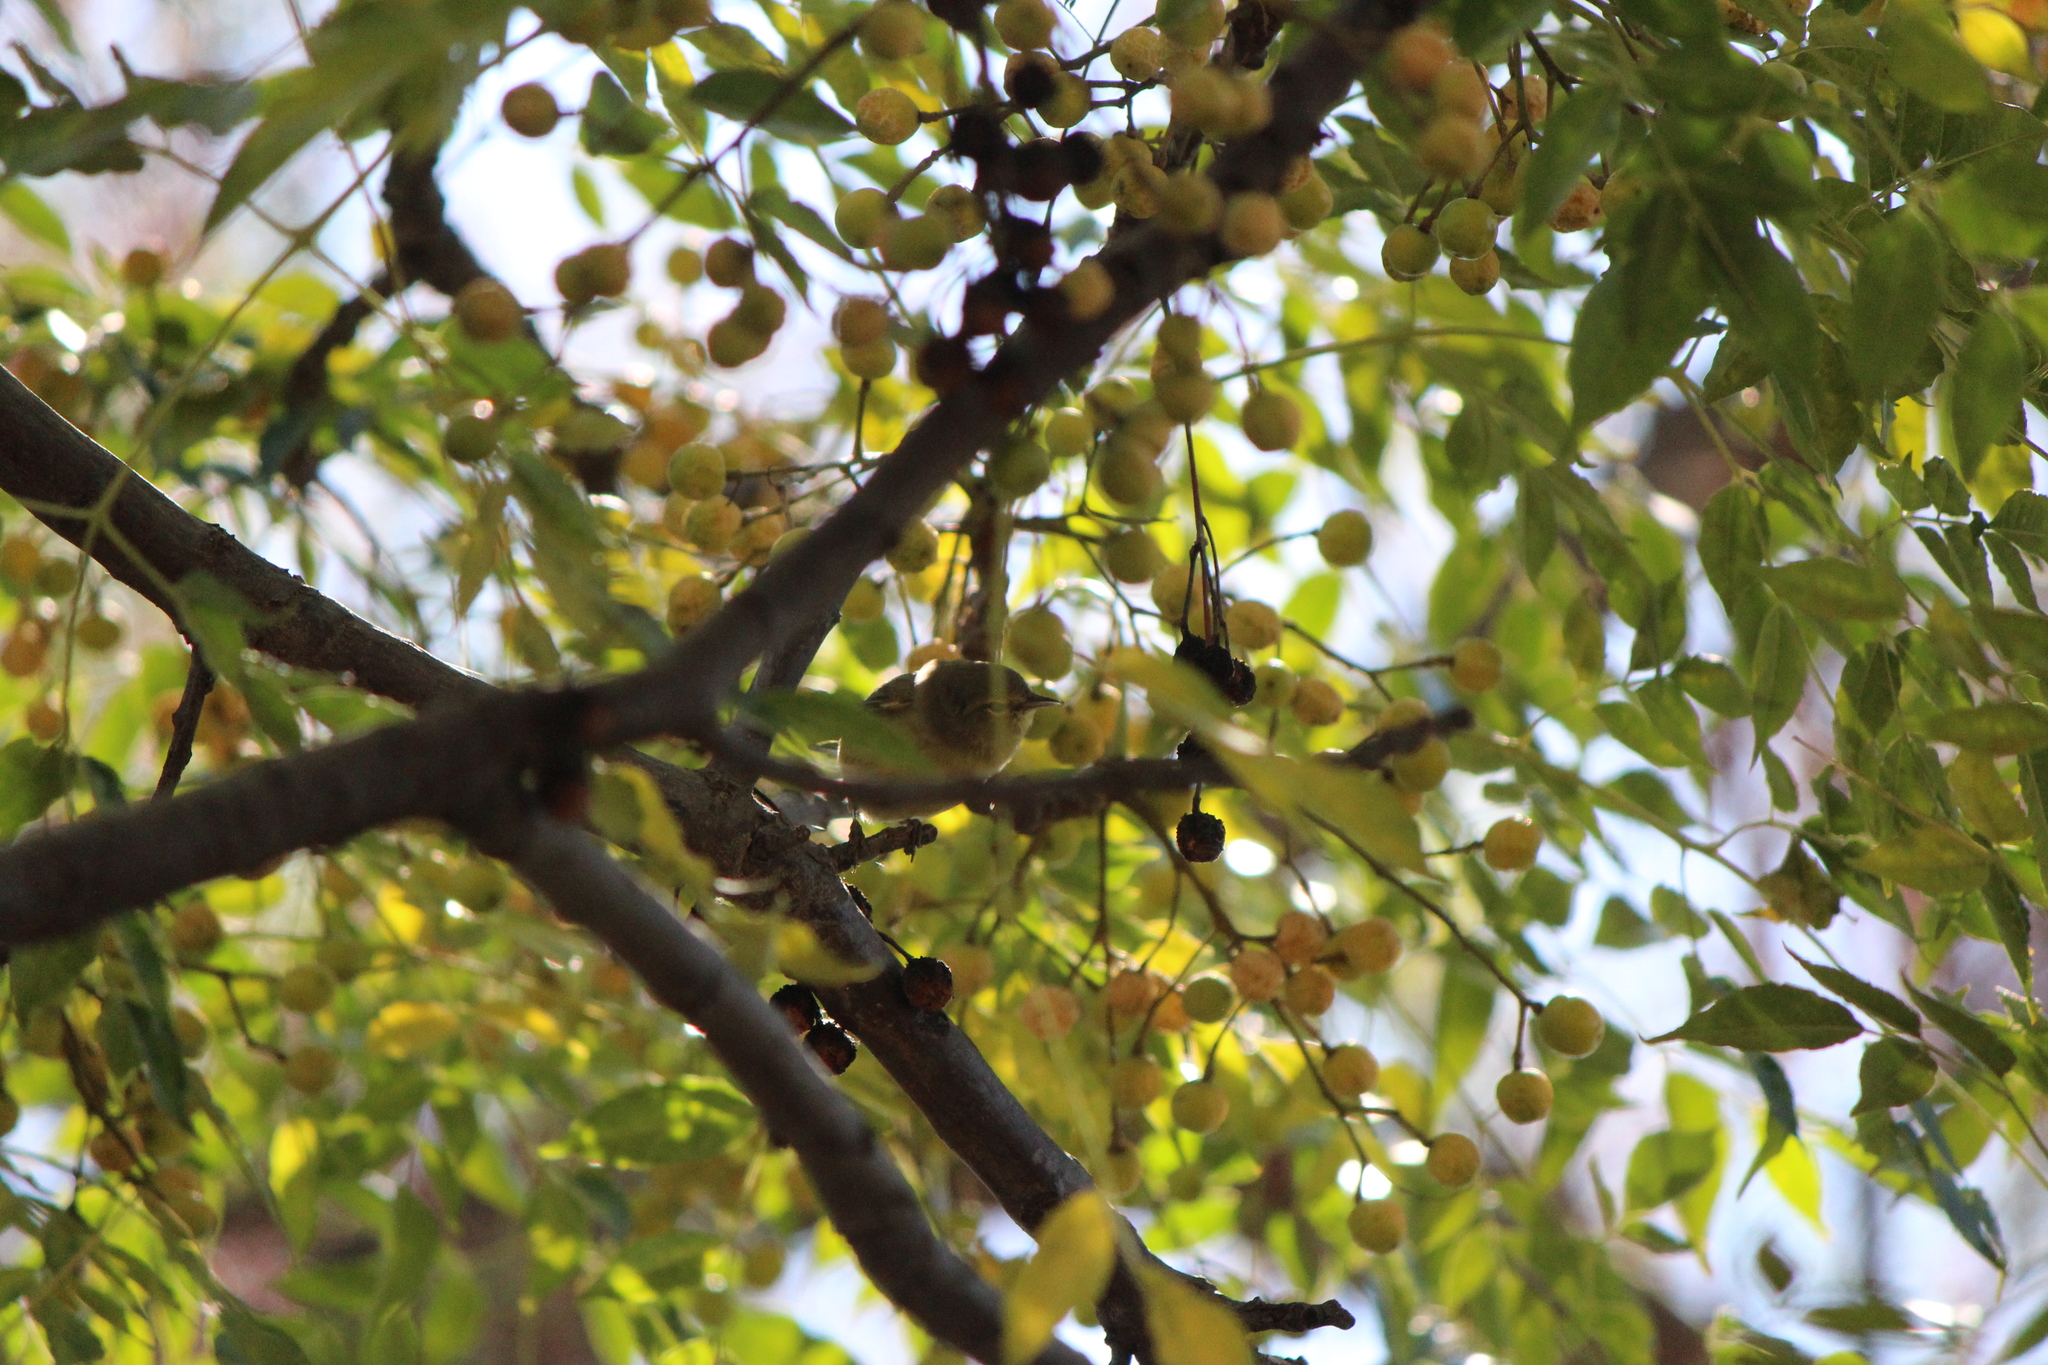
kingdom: Animalia
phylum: Chordata
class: Aves
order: Passeriformes
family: Parulidae
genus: Leiothlypis
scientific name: Leiothlypis celata
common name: Orange-crowned warbler
